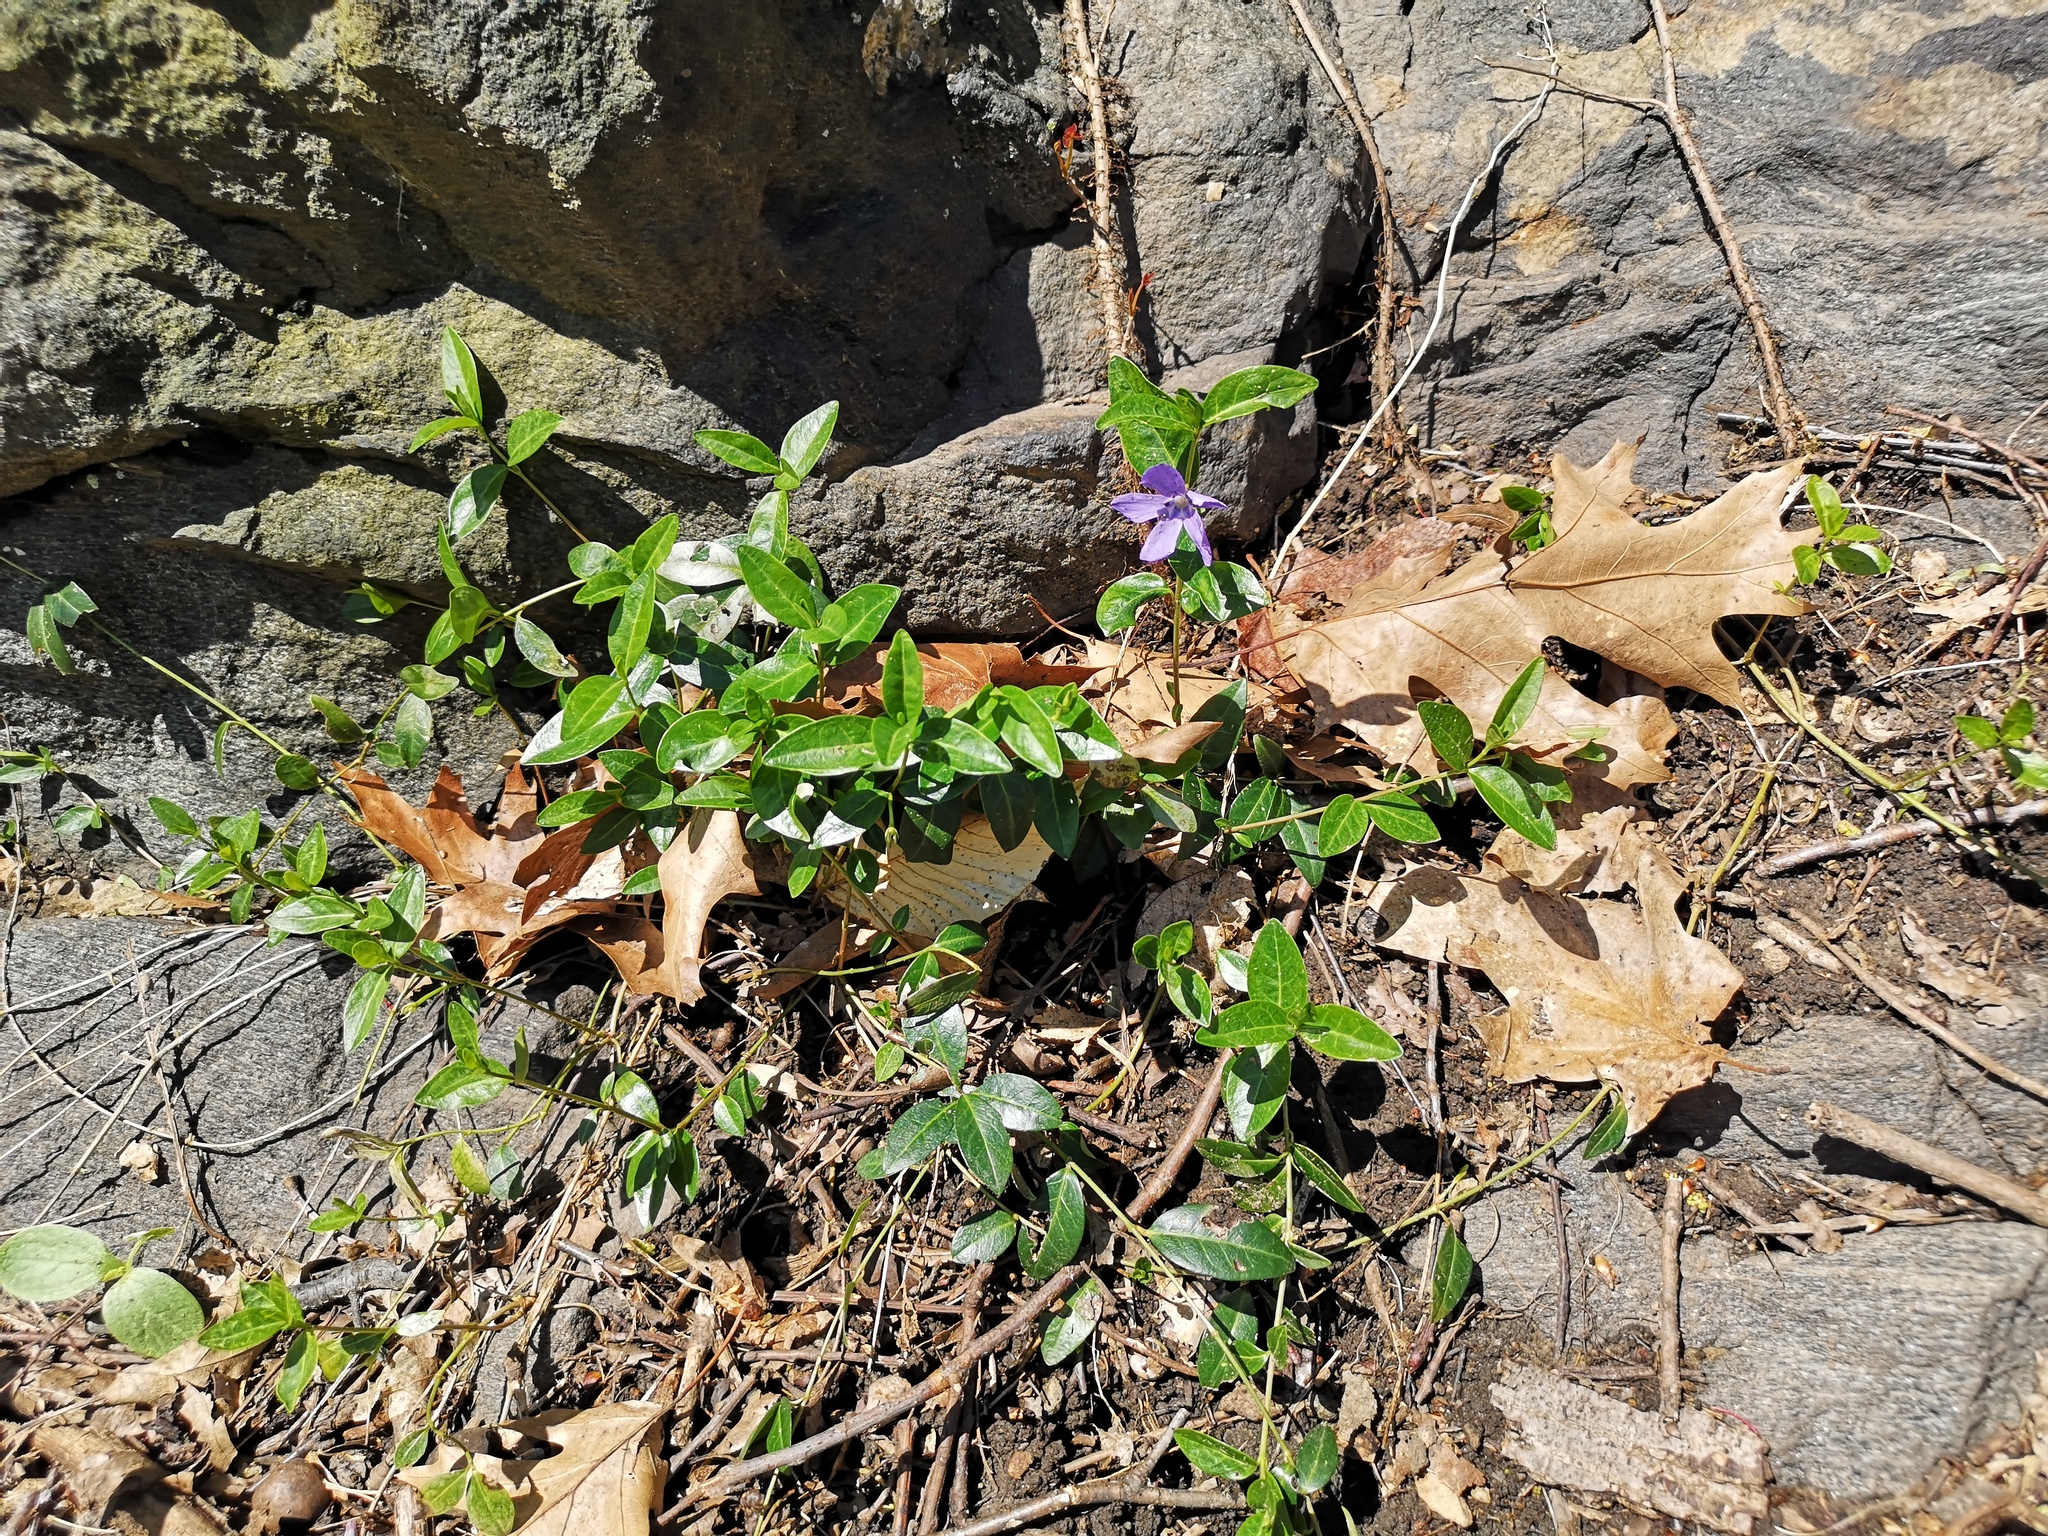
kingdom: Plantae
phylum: Tracheophyta
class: Magnoliopsida
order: Gentianales
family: Apocynaceae
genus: Vinca
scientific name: Vinca minor
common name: Lesser periwinkle
